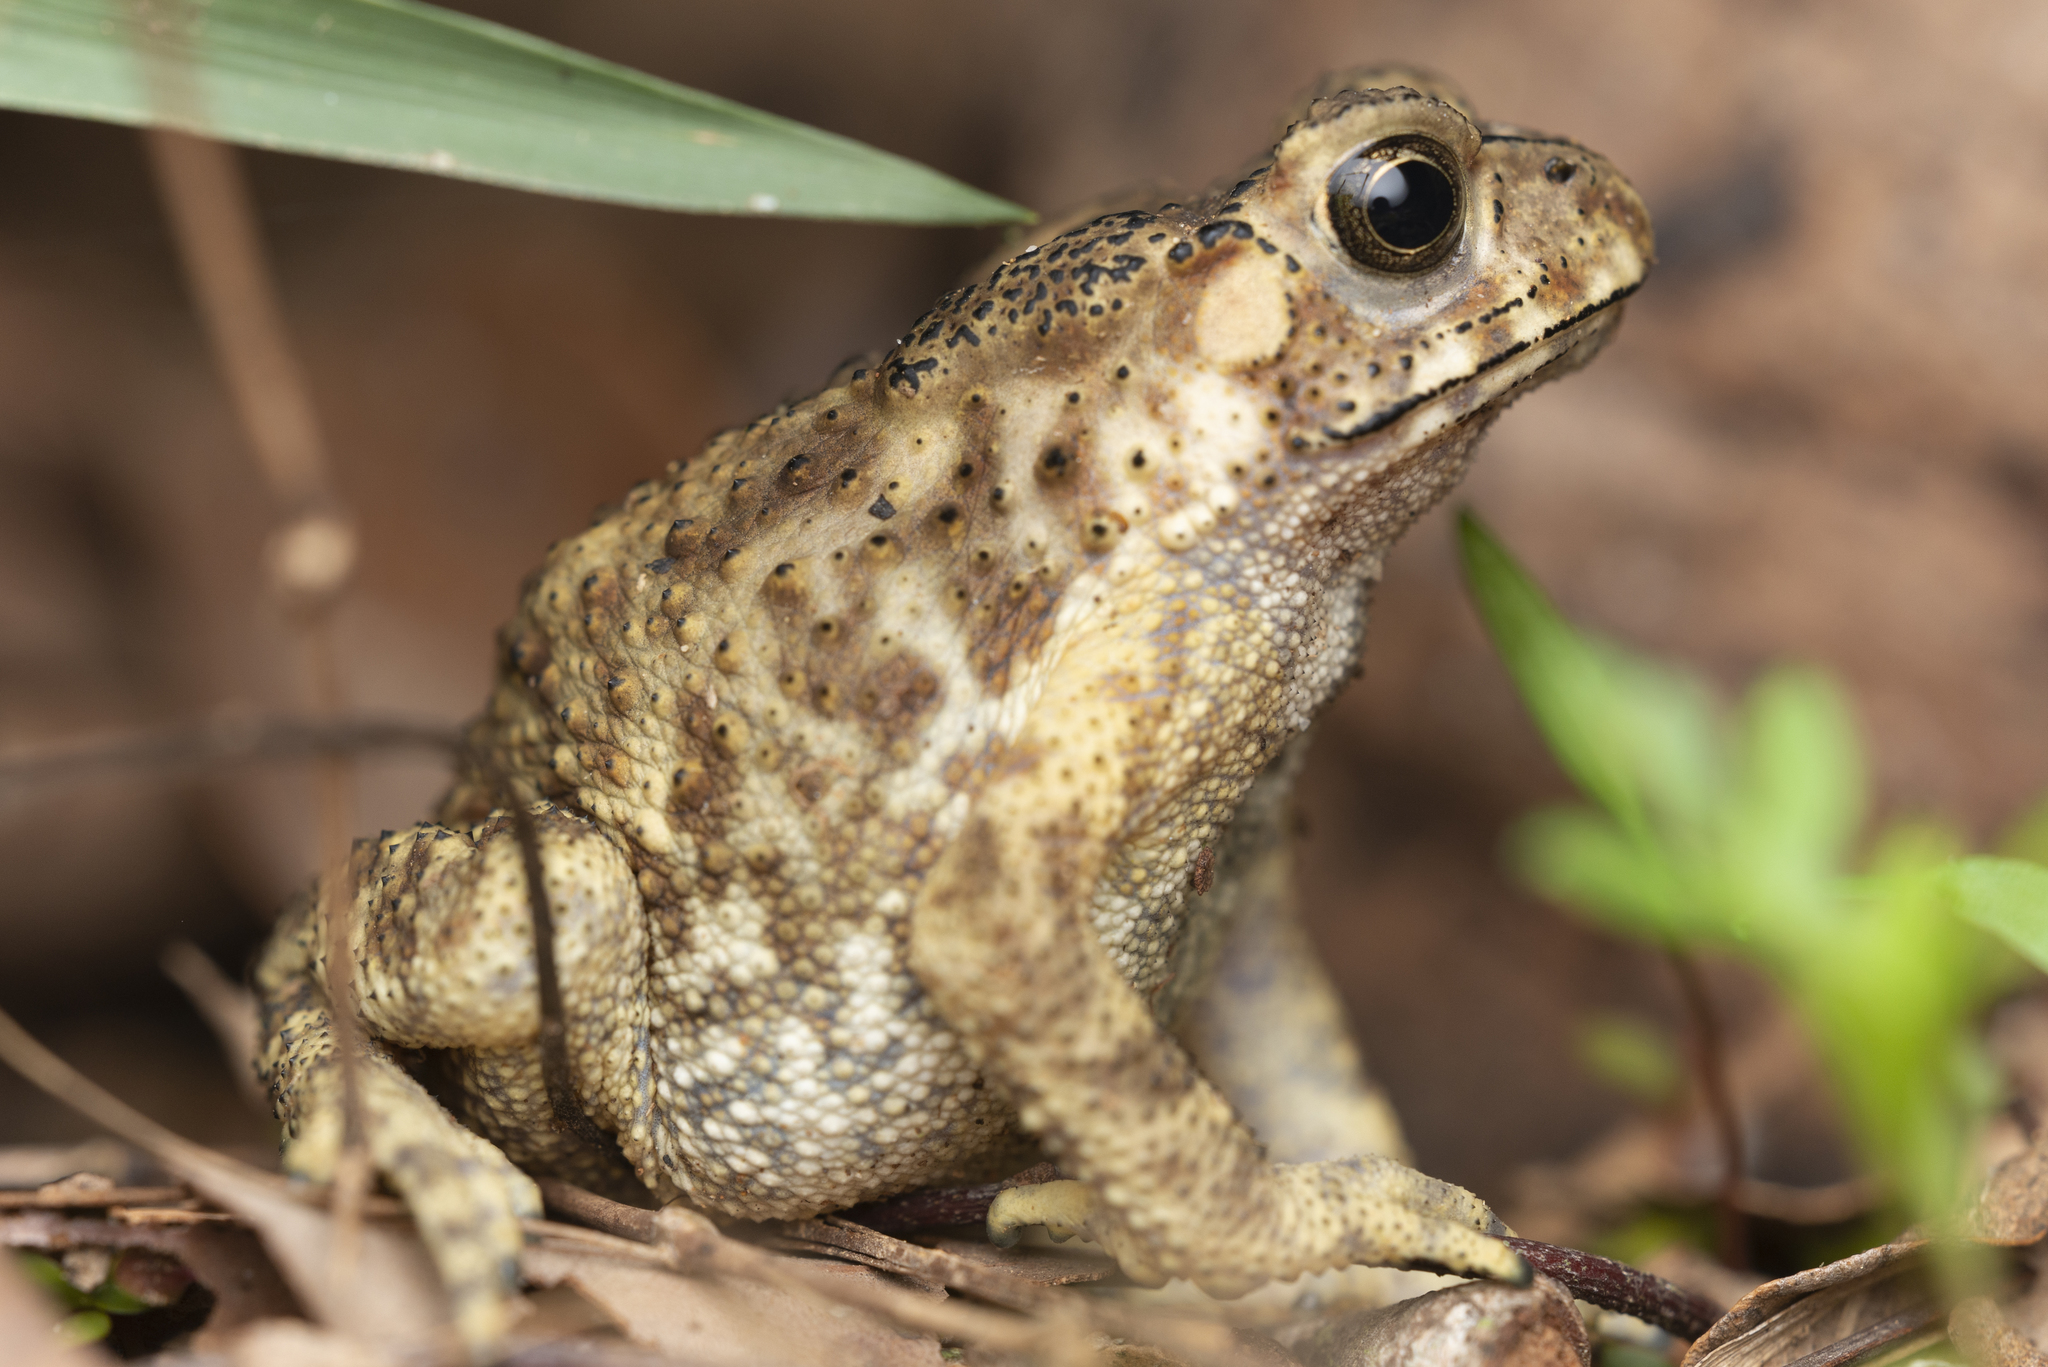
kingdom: Animalia
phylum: Chordata
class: Amphibia
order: Anura
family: Bufonidae
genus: Duttaphrynus
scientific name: Duttaphrynus melanostictus
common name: Common sunda toad
